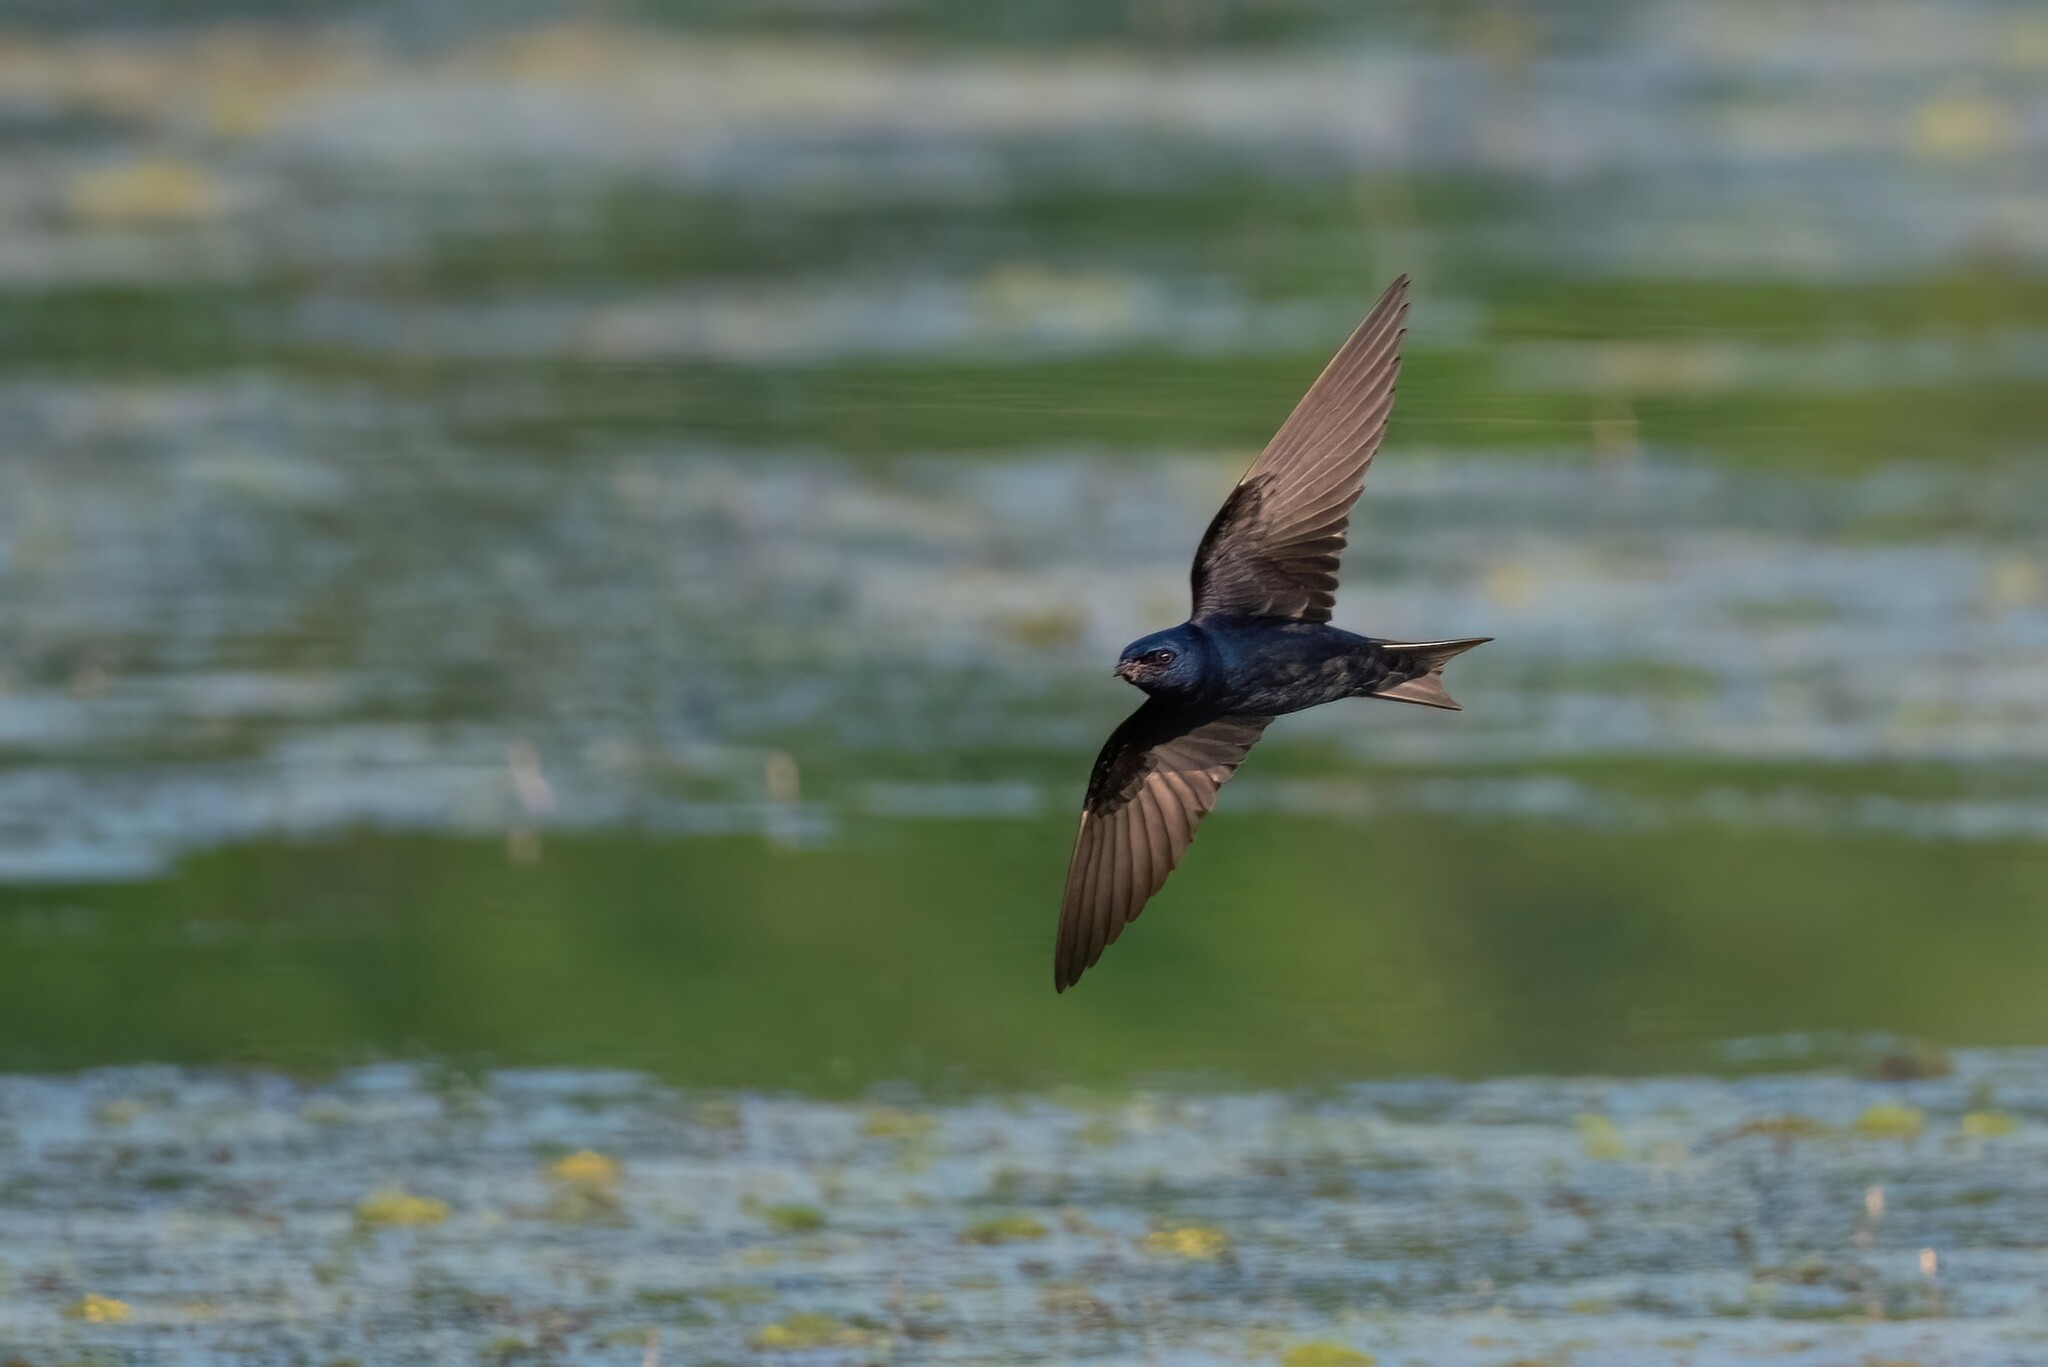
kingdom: Animalia
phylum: Chordata
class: Aves
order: Passeriformes
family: Hirundinidae
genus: Progne
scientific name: Progne subis
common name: Purple martin
